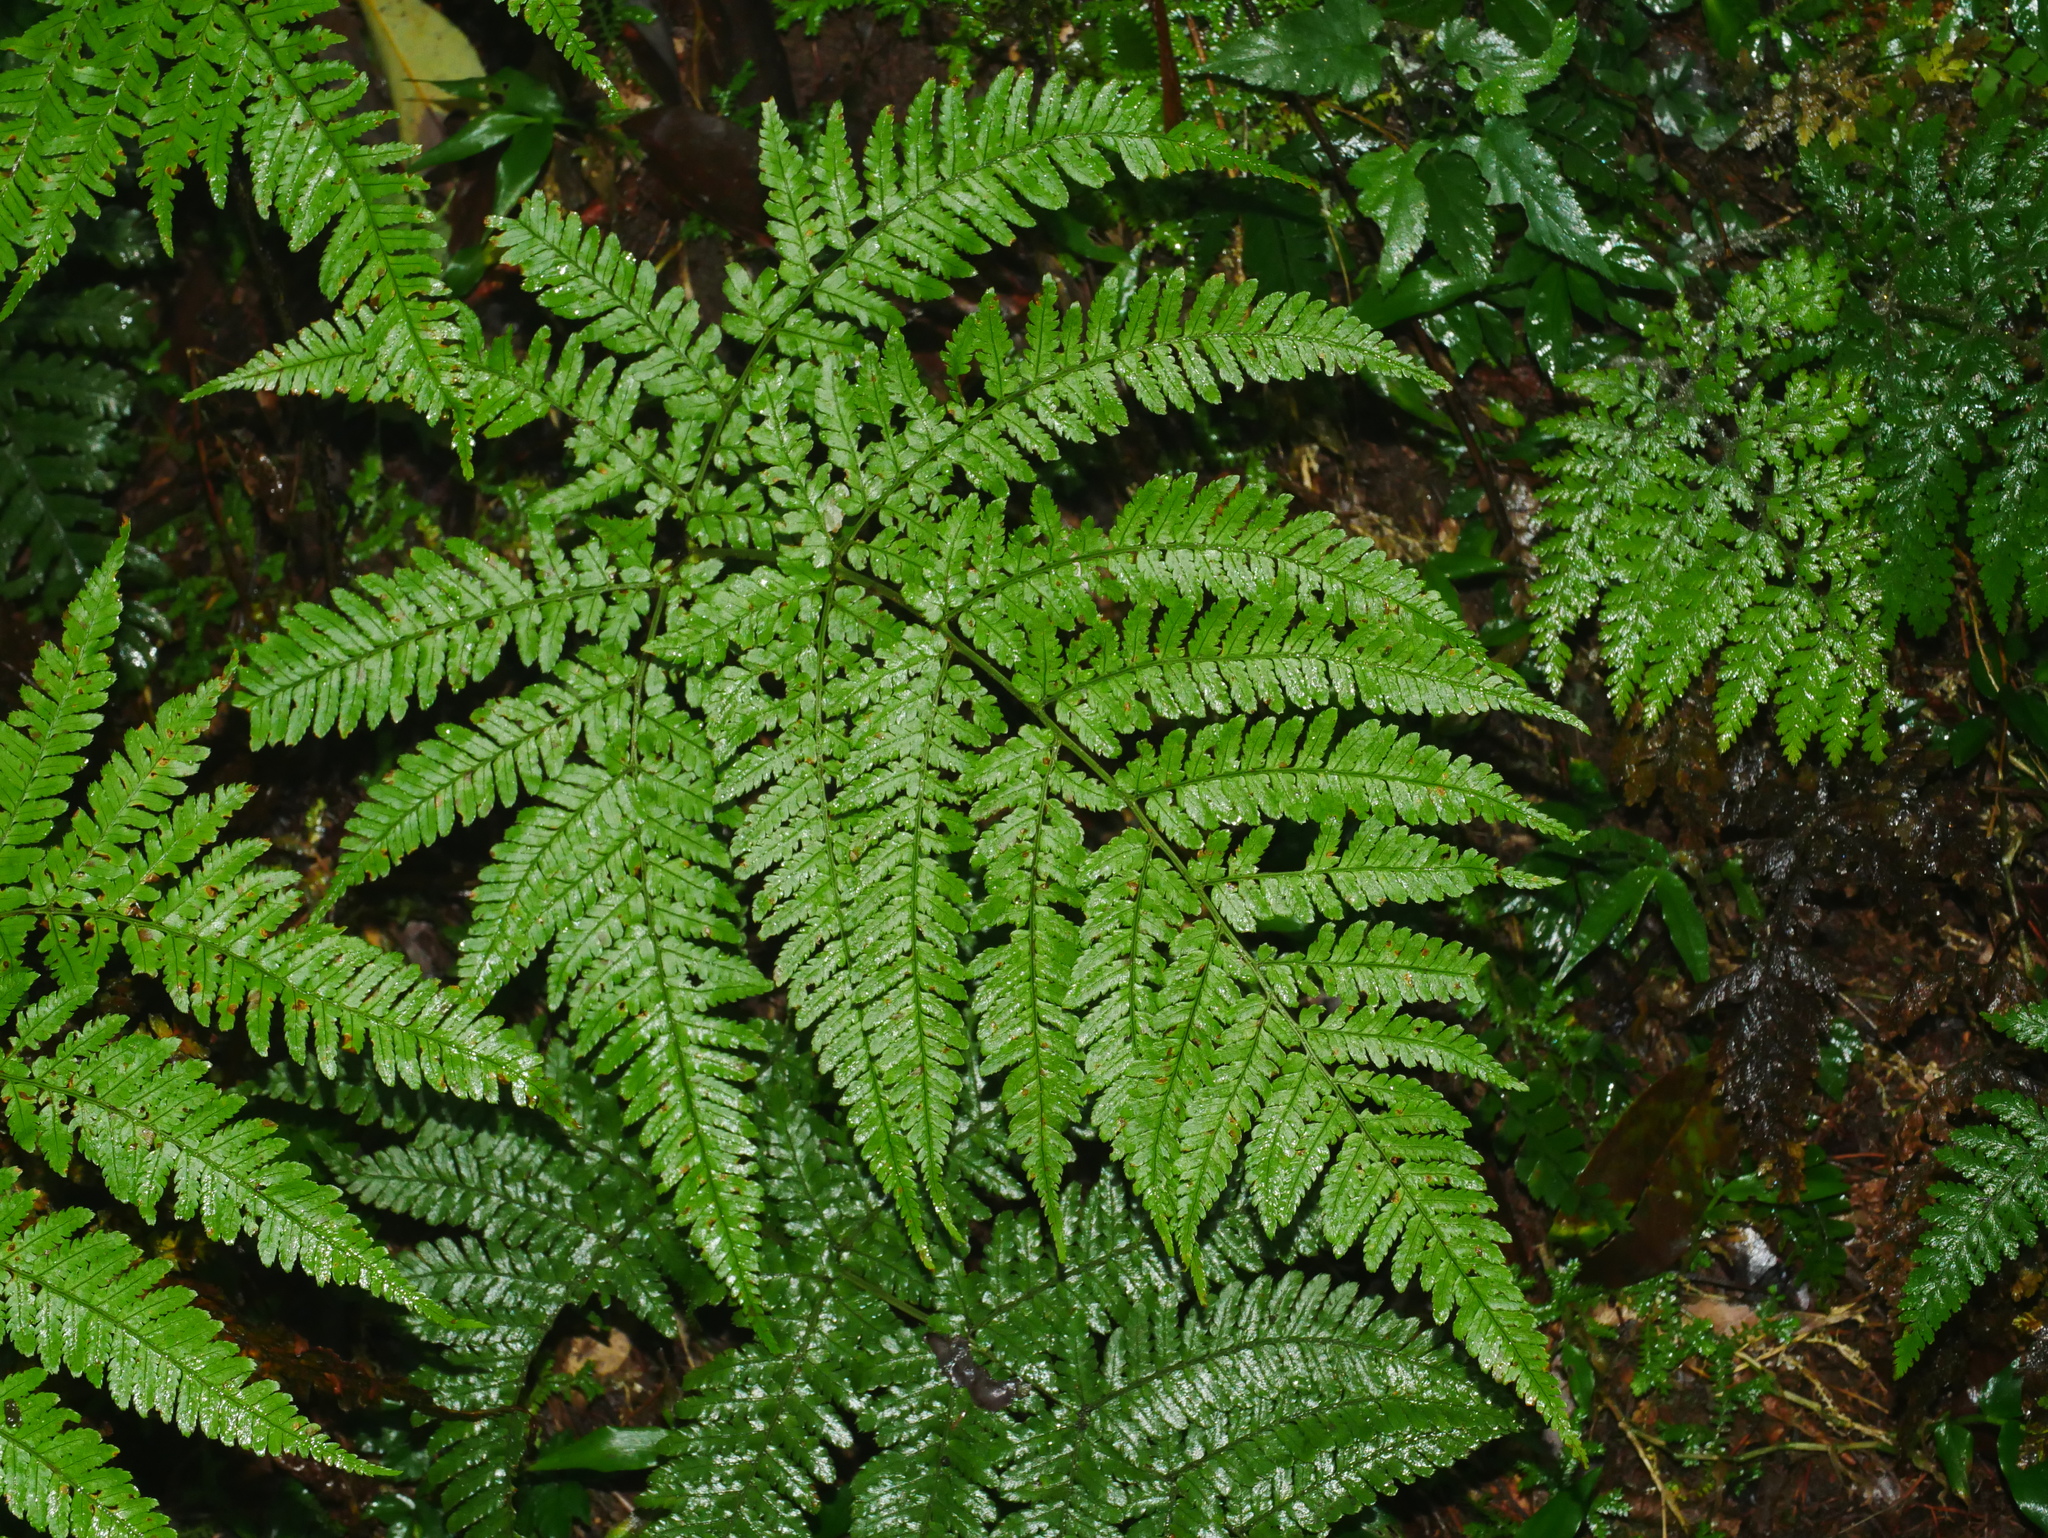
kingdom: Plantae
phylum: Tracheophyta
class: Polypodiopsida
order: Polypodiales
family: Dryopteridaceae
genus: Dryopteris
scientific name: Dryopteris formosana
